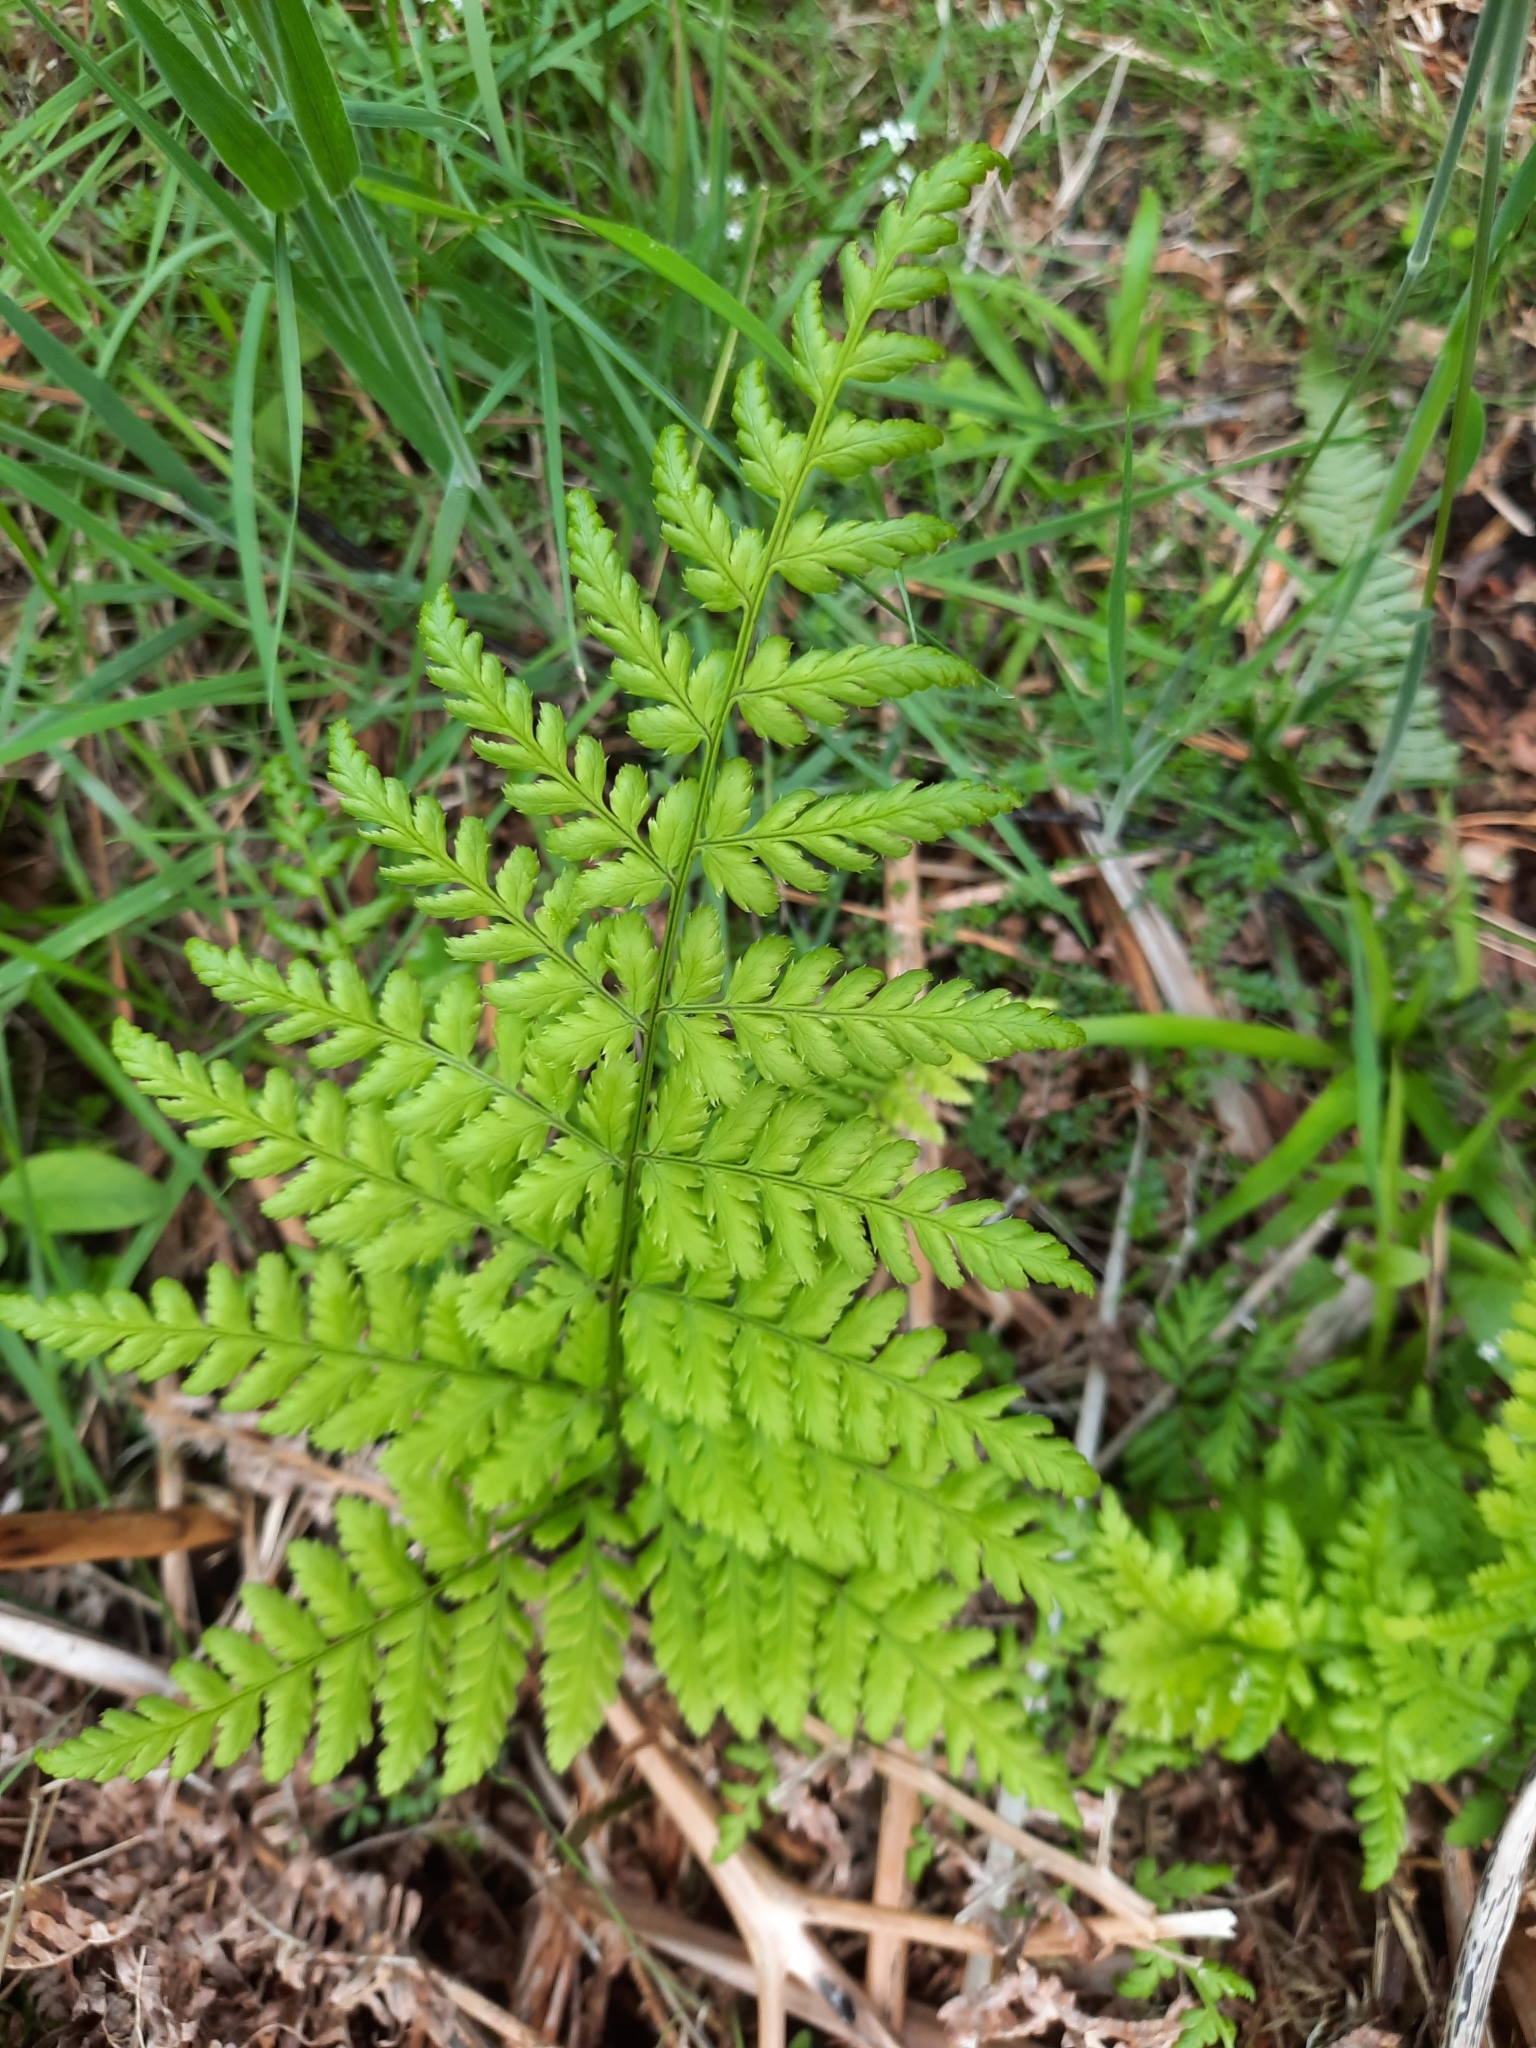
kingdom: Plantae
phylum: Tracheophyta
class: Polypodiopsida
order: Polypodiales
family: Dryopteridaceae
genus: Dryopteris
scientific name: Dryopteris dilatata
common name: Broad buckler-fern
